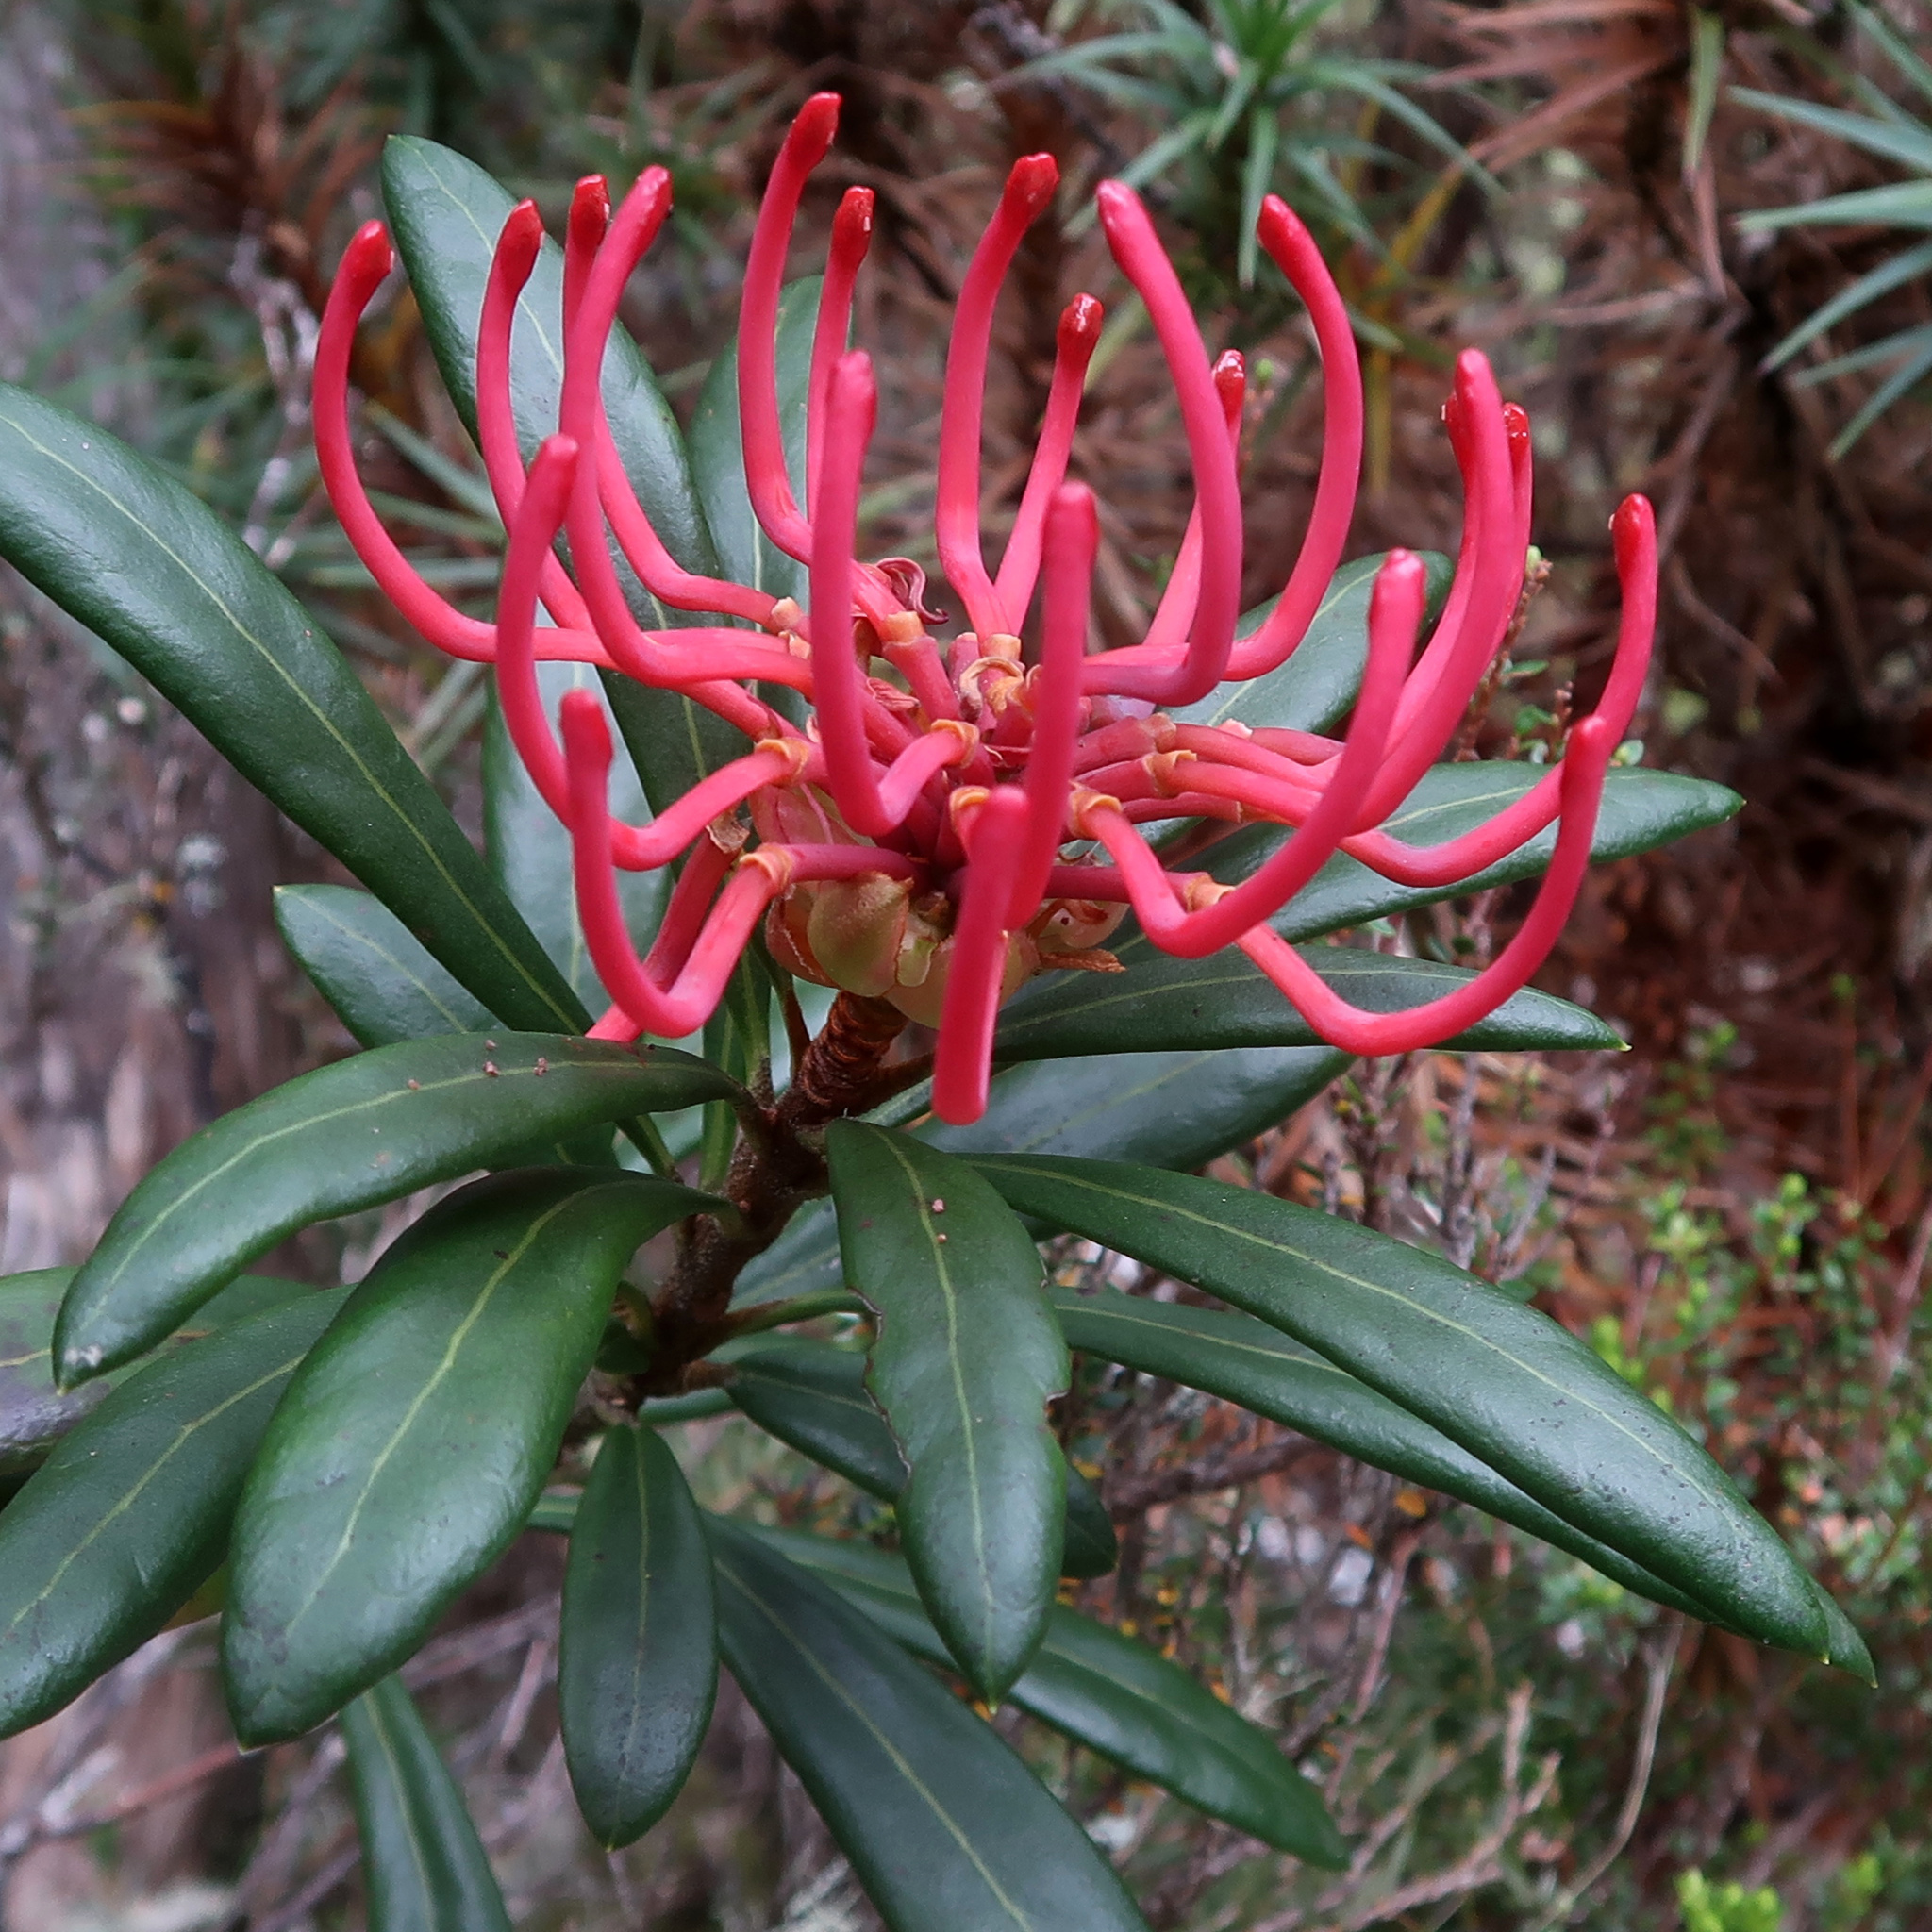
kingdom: Plantae
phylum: Tracheophyta
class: Magnoliopsida
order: Proteales
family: Proteaceae
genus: Telopea
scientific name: Telopea truncata
